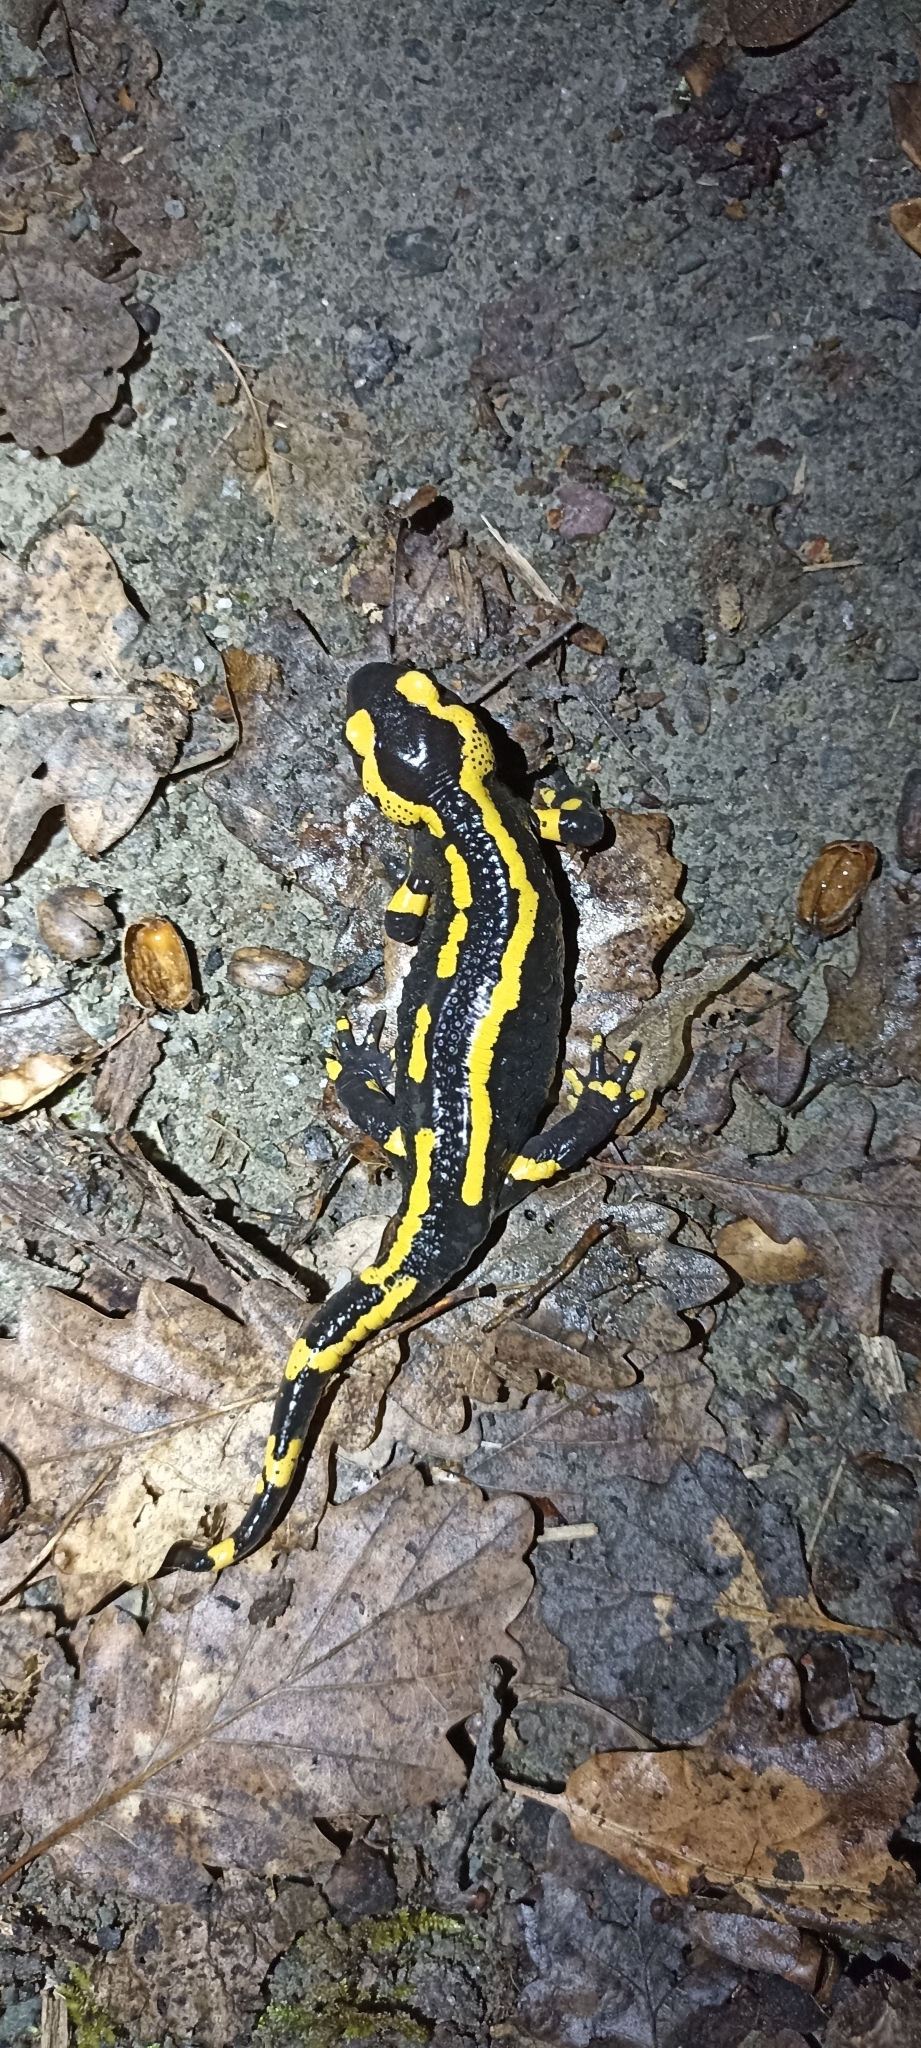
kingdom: Animalia
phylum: Chordata
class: Amphibia
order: Caudata
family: Salamandridae
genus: Salamandra
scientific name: Salamandra salamandra
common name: Fire salamander
